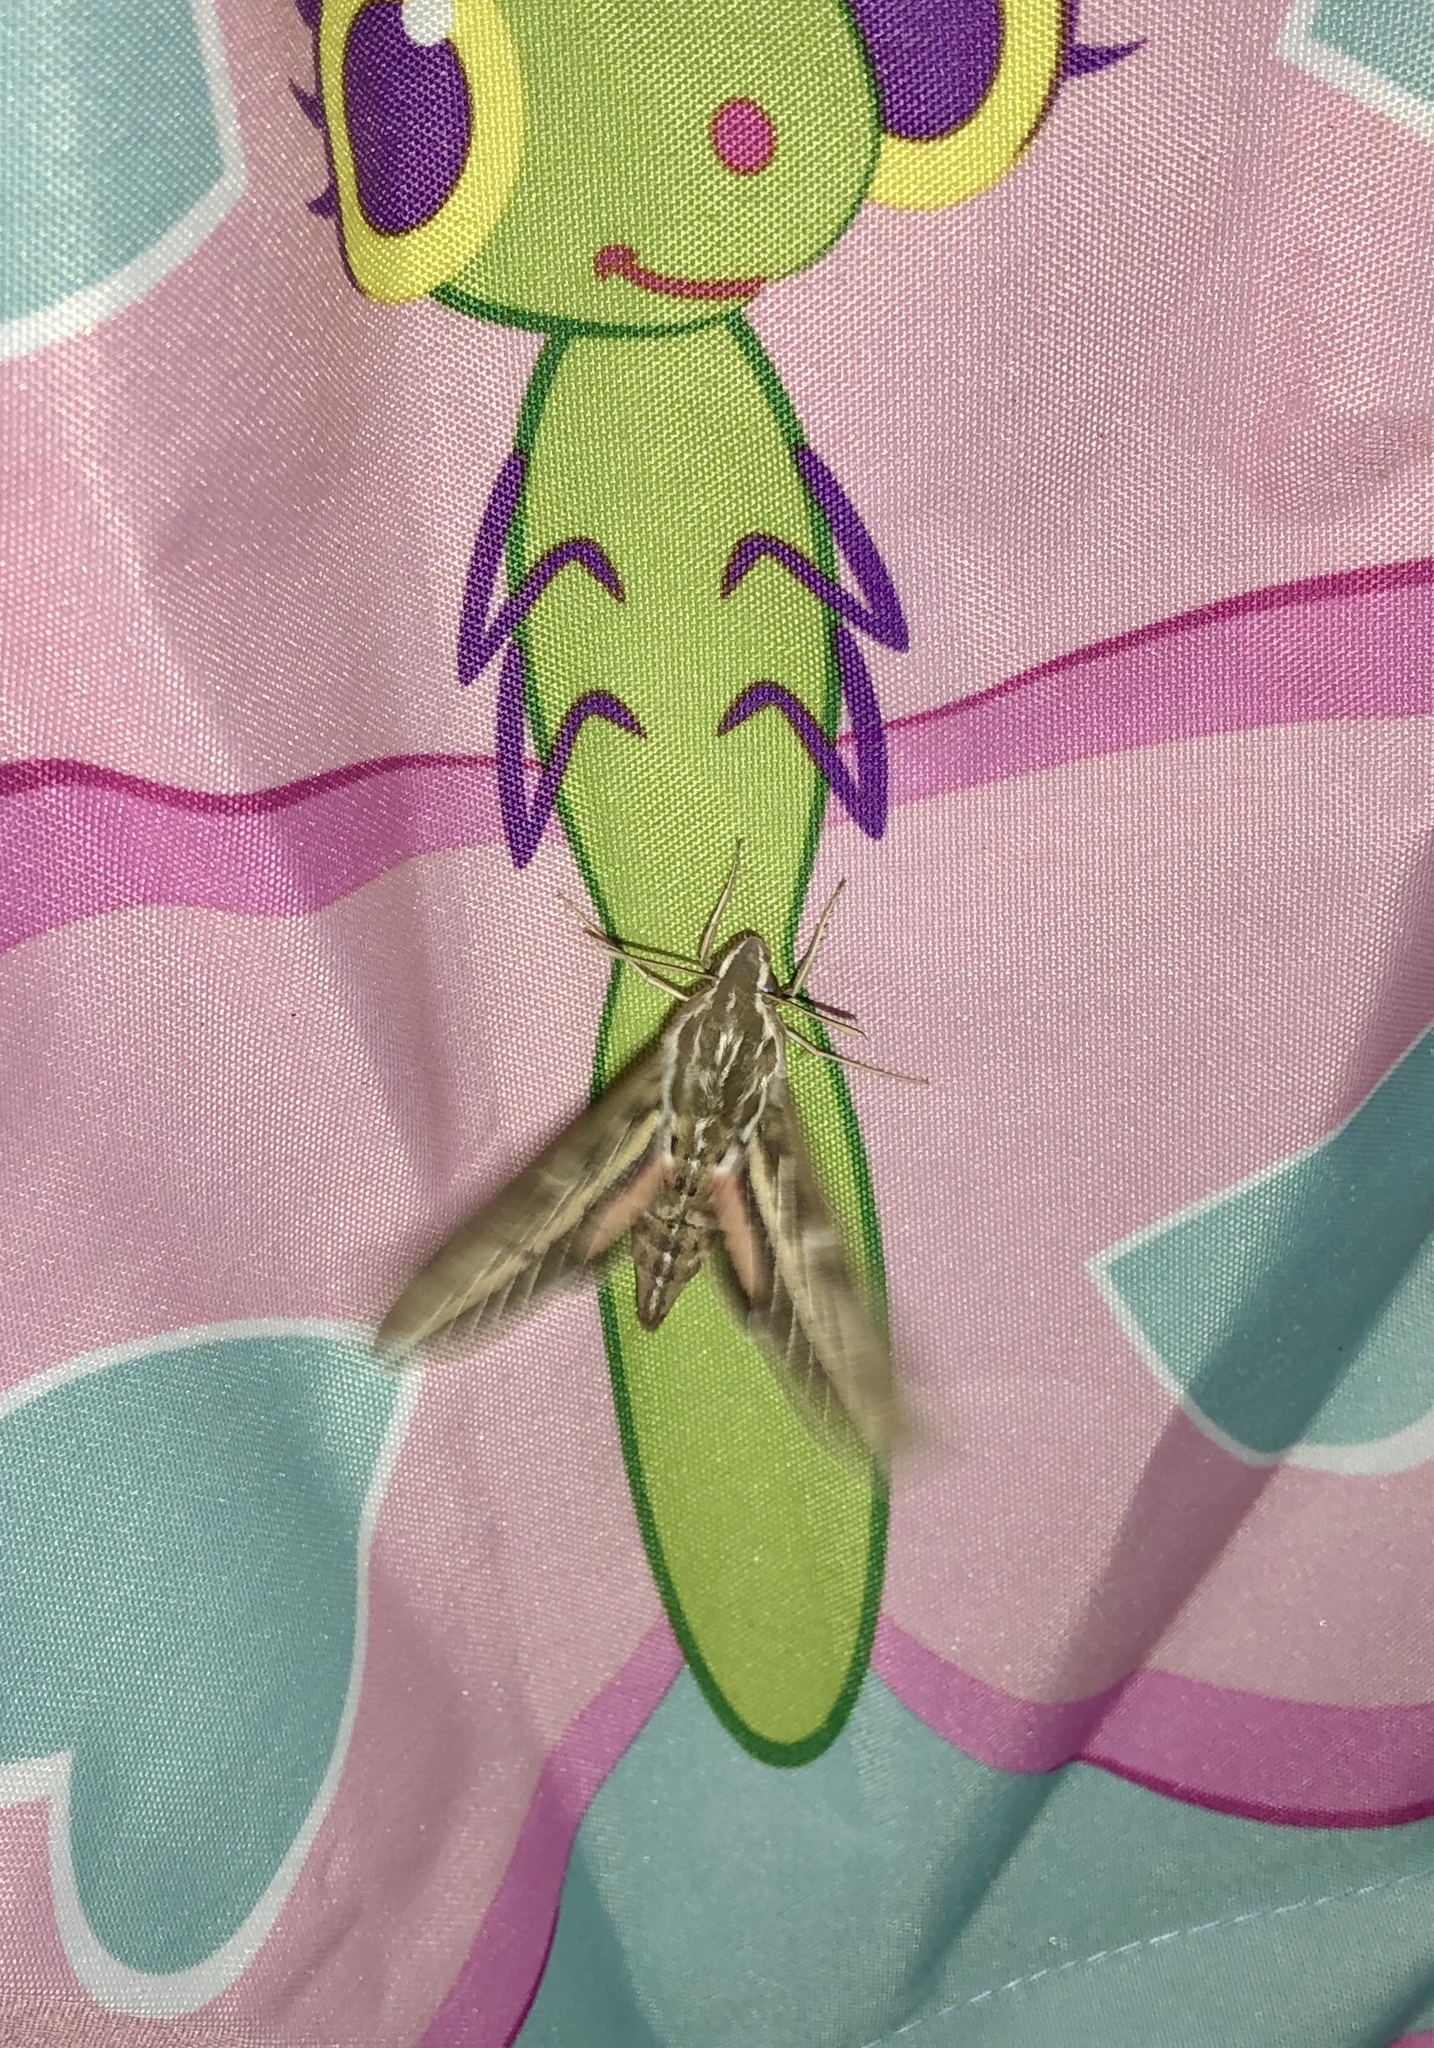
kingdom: Animalia
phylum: Arthropoda
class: Insecta
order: Lepidoptera
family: Sphingidae
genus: Hyles
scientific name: Hyles lineata
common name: White-lined sphinx
